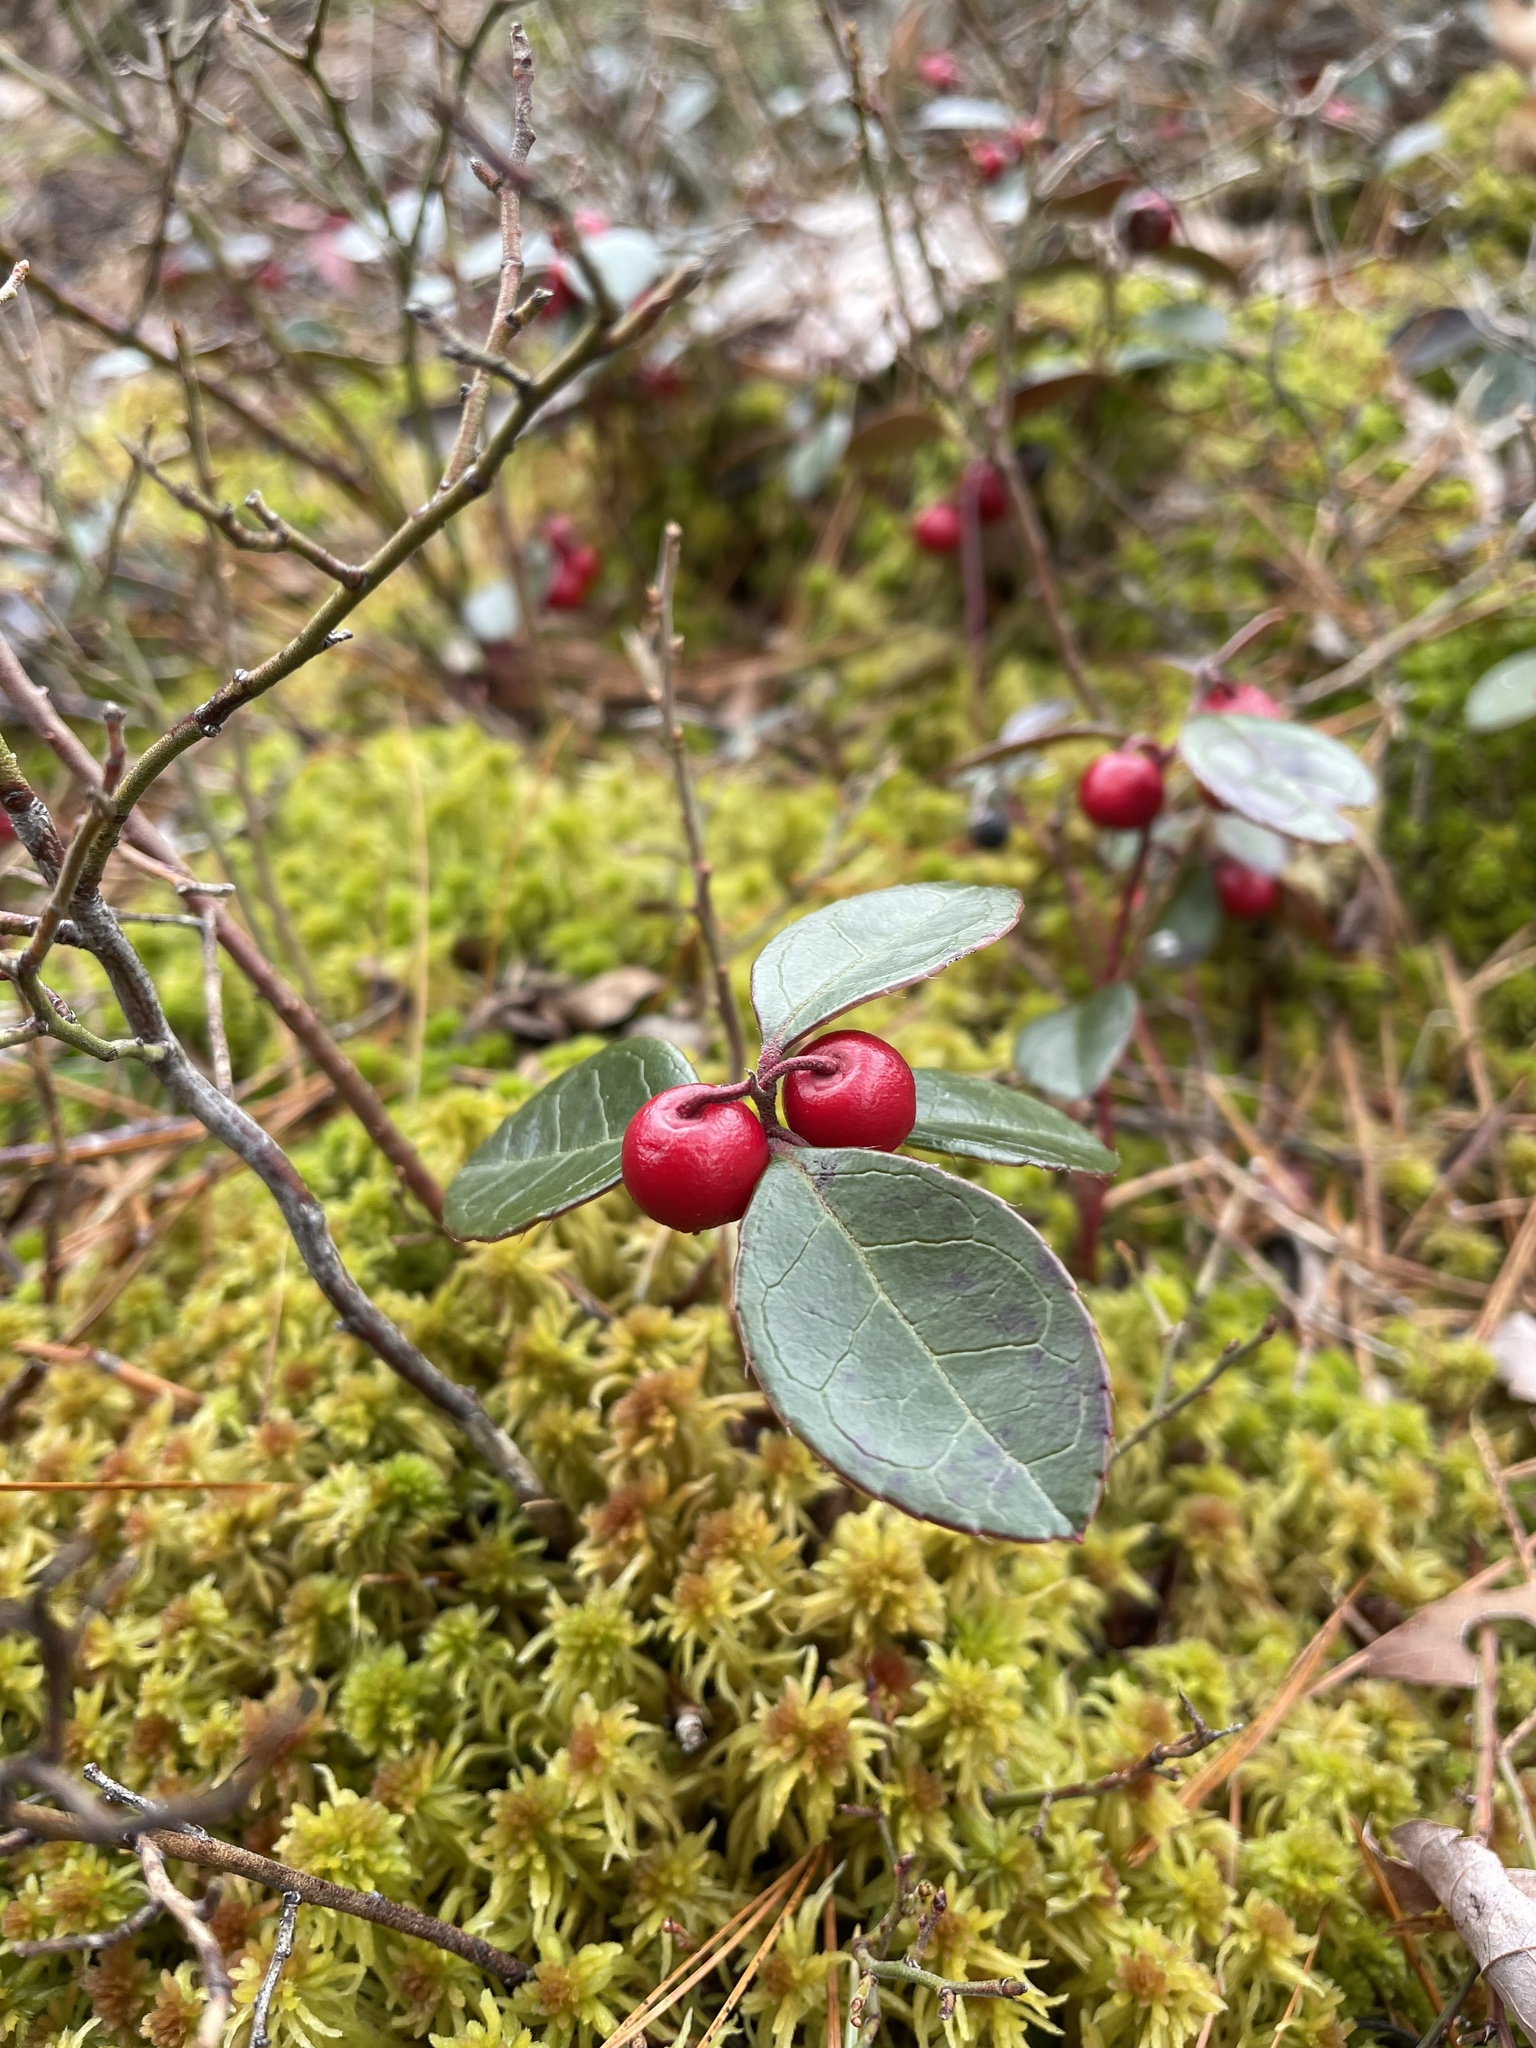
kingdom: Plantae
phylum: Tracheophyta
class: Magnoliopsida
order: Ericales
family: Ericaceae
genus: Gaultheria
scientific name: Gaultheria procumbens
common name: Checkerberry
